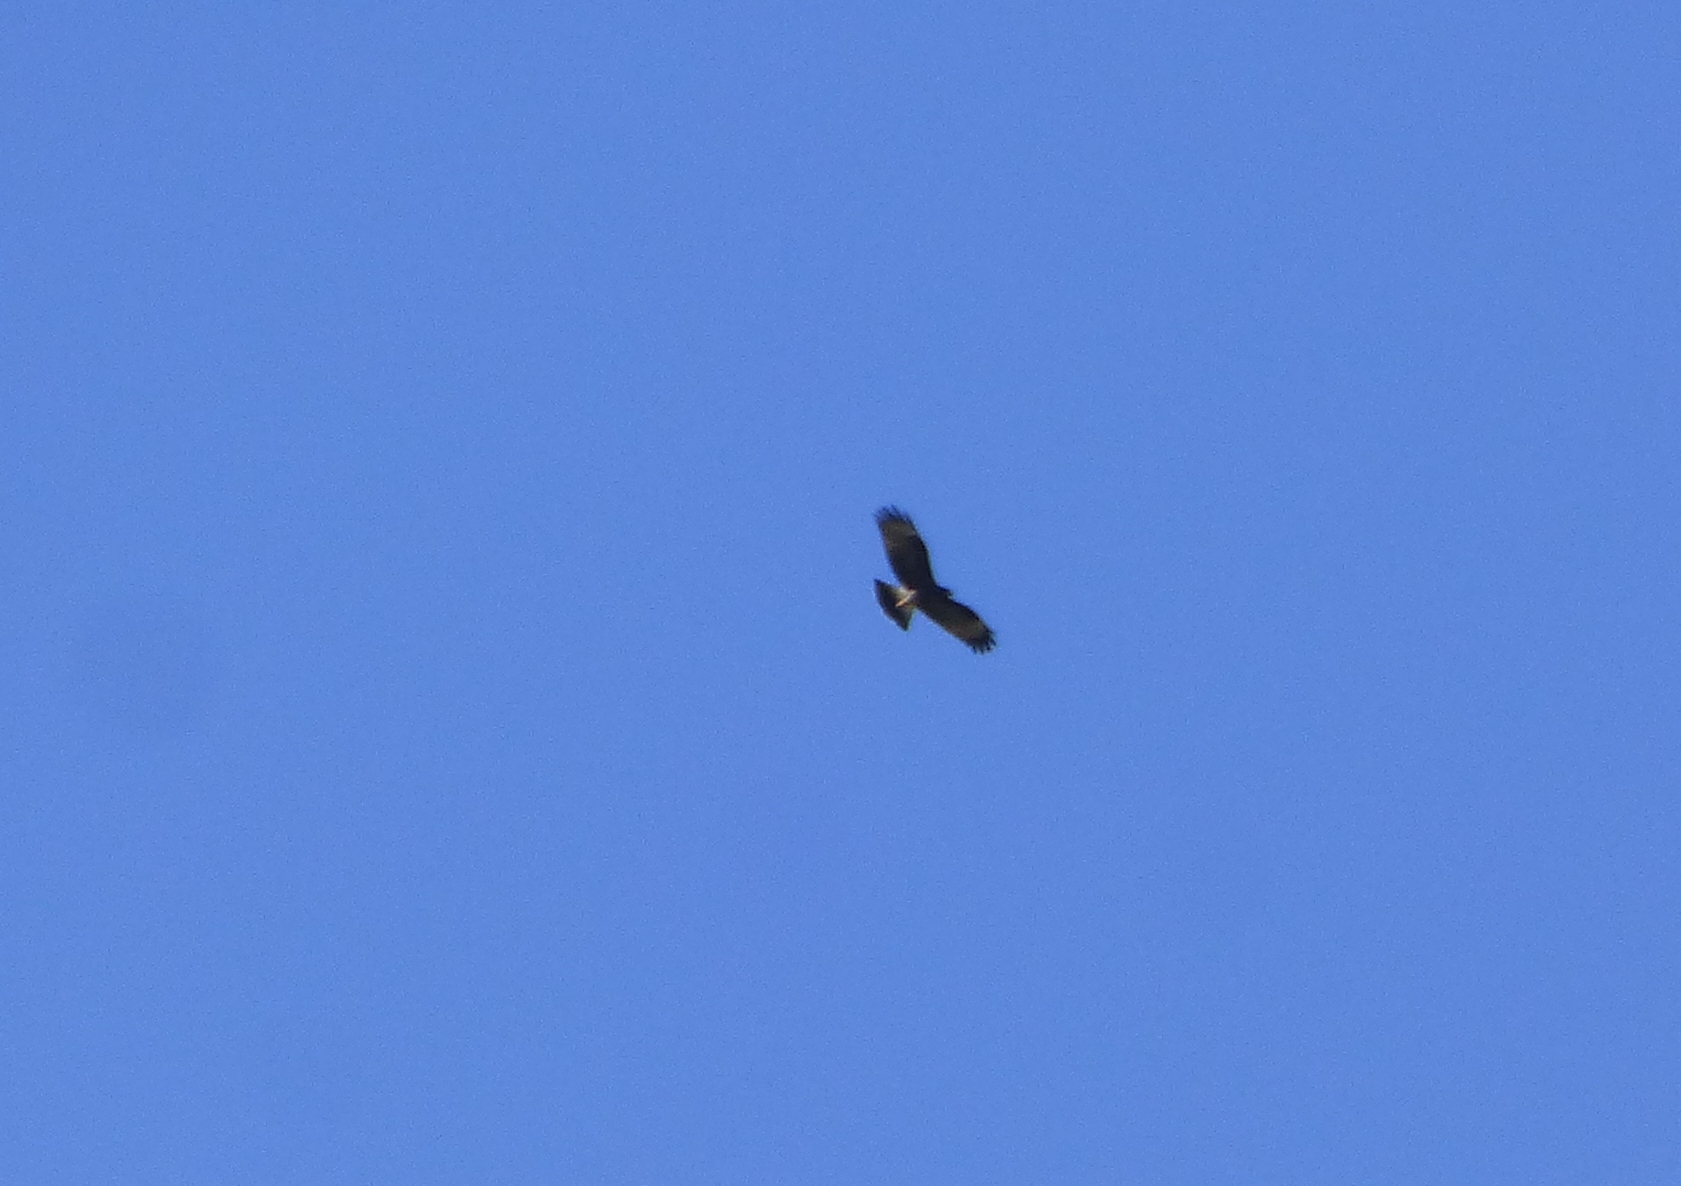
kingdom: Animalia
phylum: Chordata
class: Aves
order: Accipitriformes
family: Accipitridae
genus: Rostrhamus
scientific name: Rostrhamus sociabilis
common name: Snail kite
